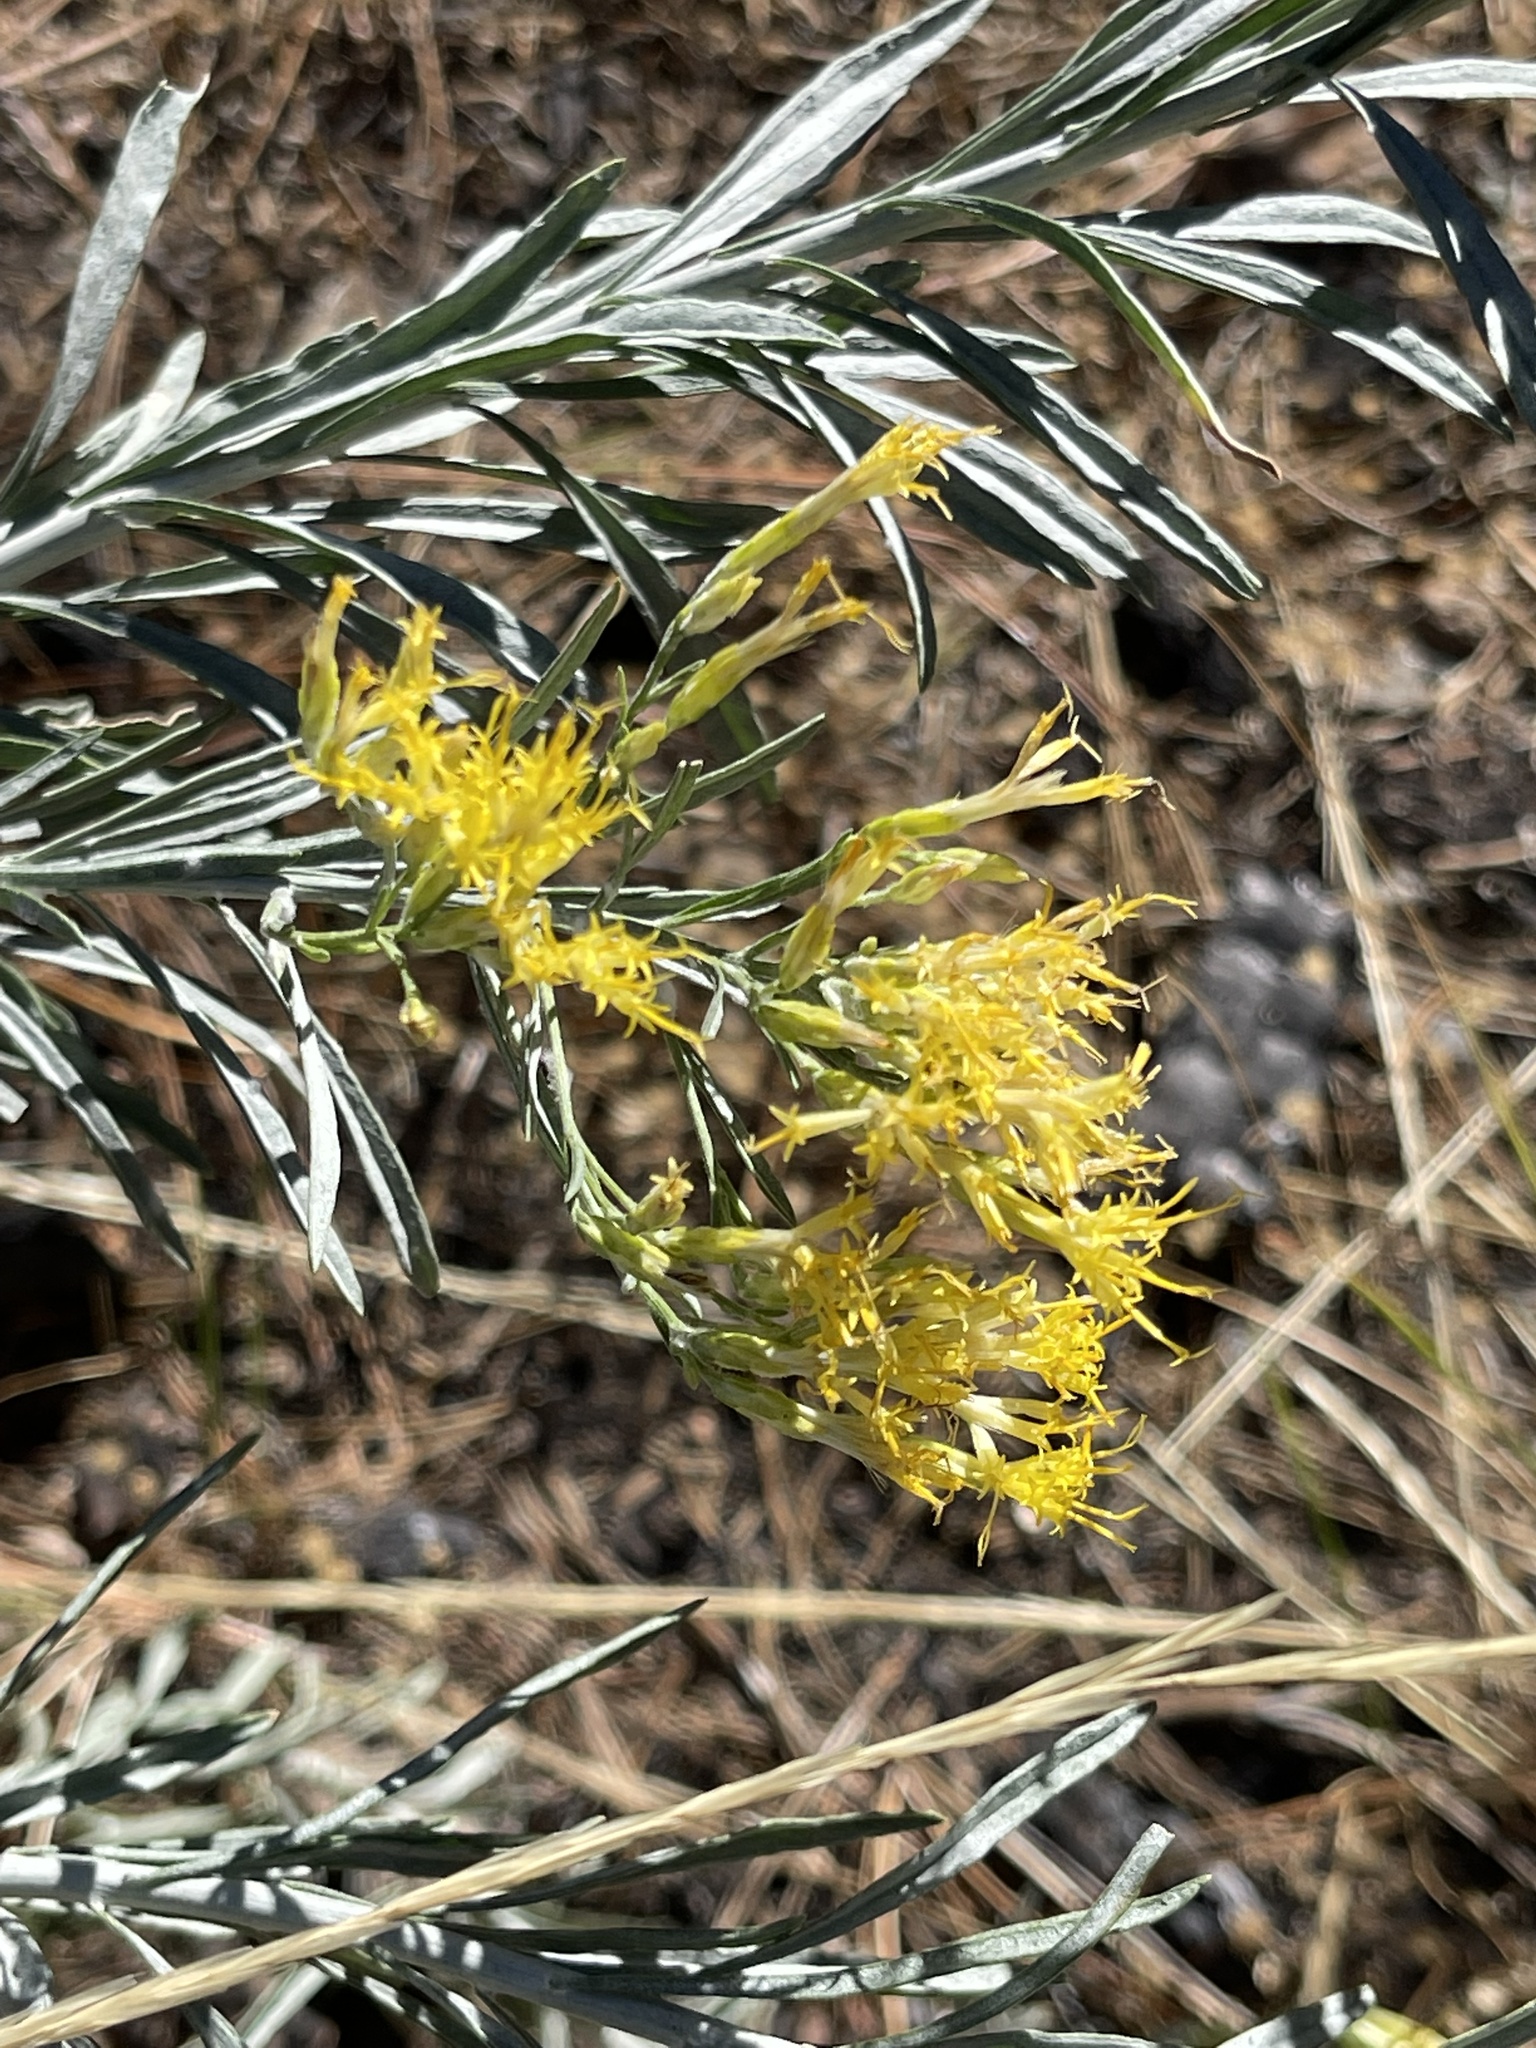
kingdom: Plantae
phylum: Tracheophyta
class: Magnoliopsida
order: Asterales
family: Asteraceae
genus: Ericameria
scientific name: Ericameria nauseosa
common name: Rubber rabbitbrush
